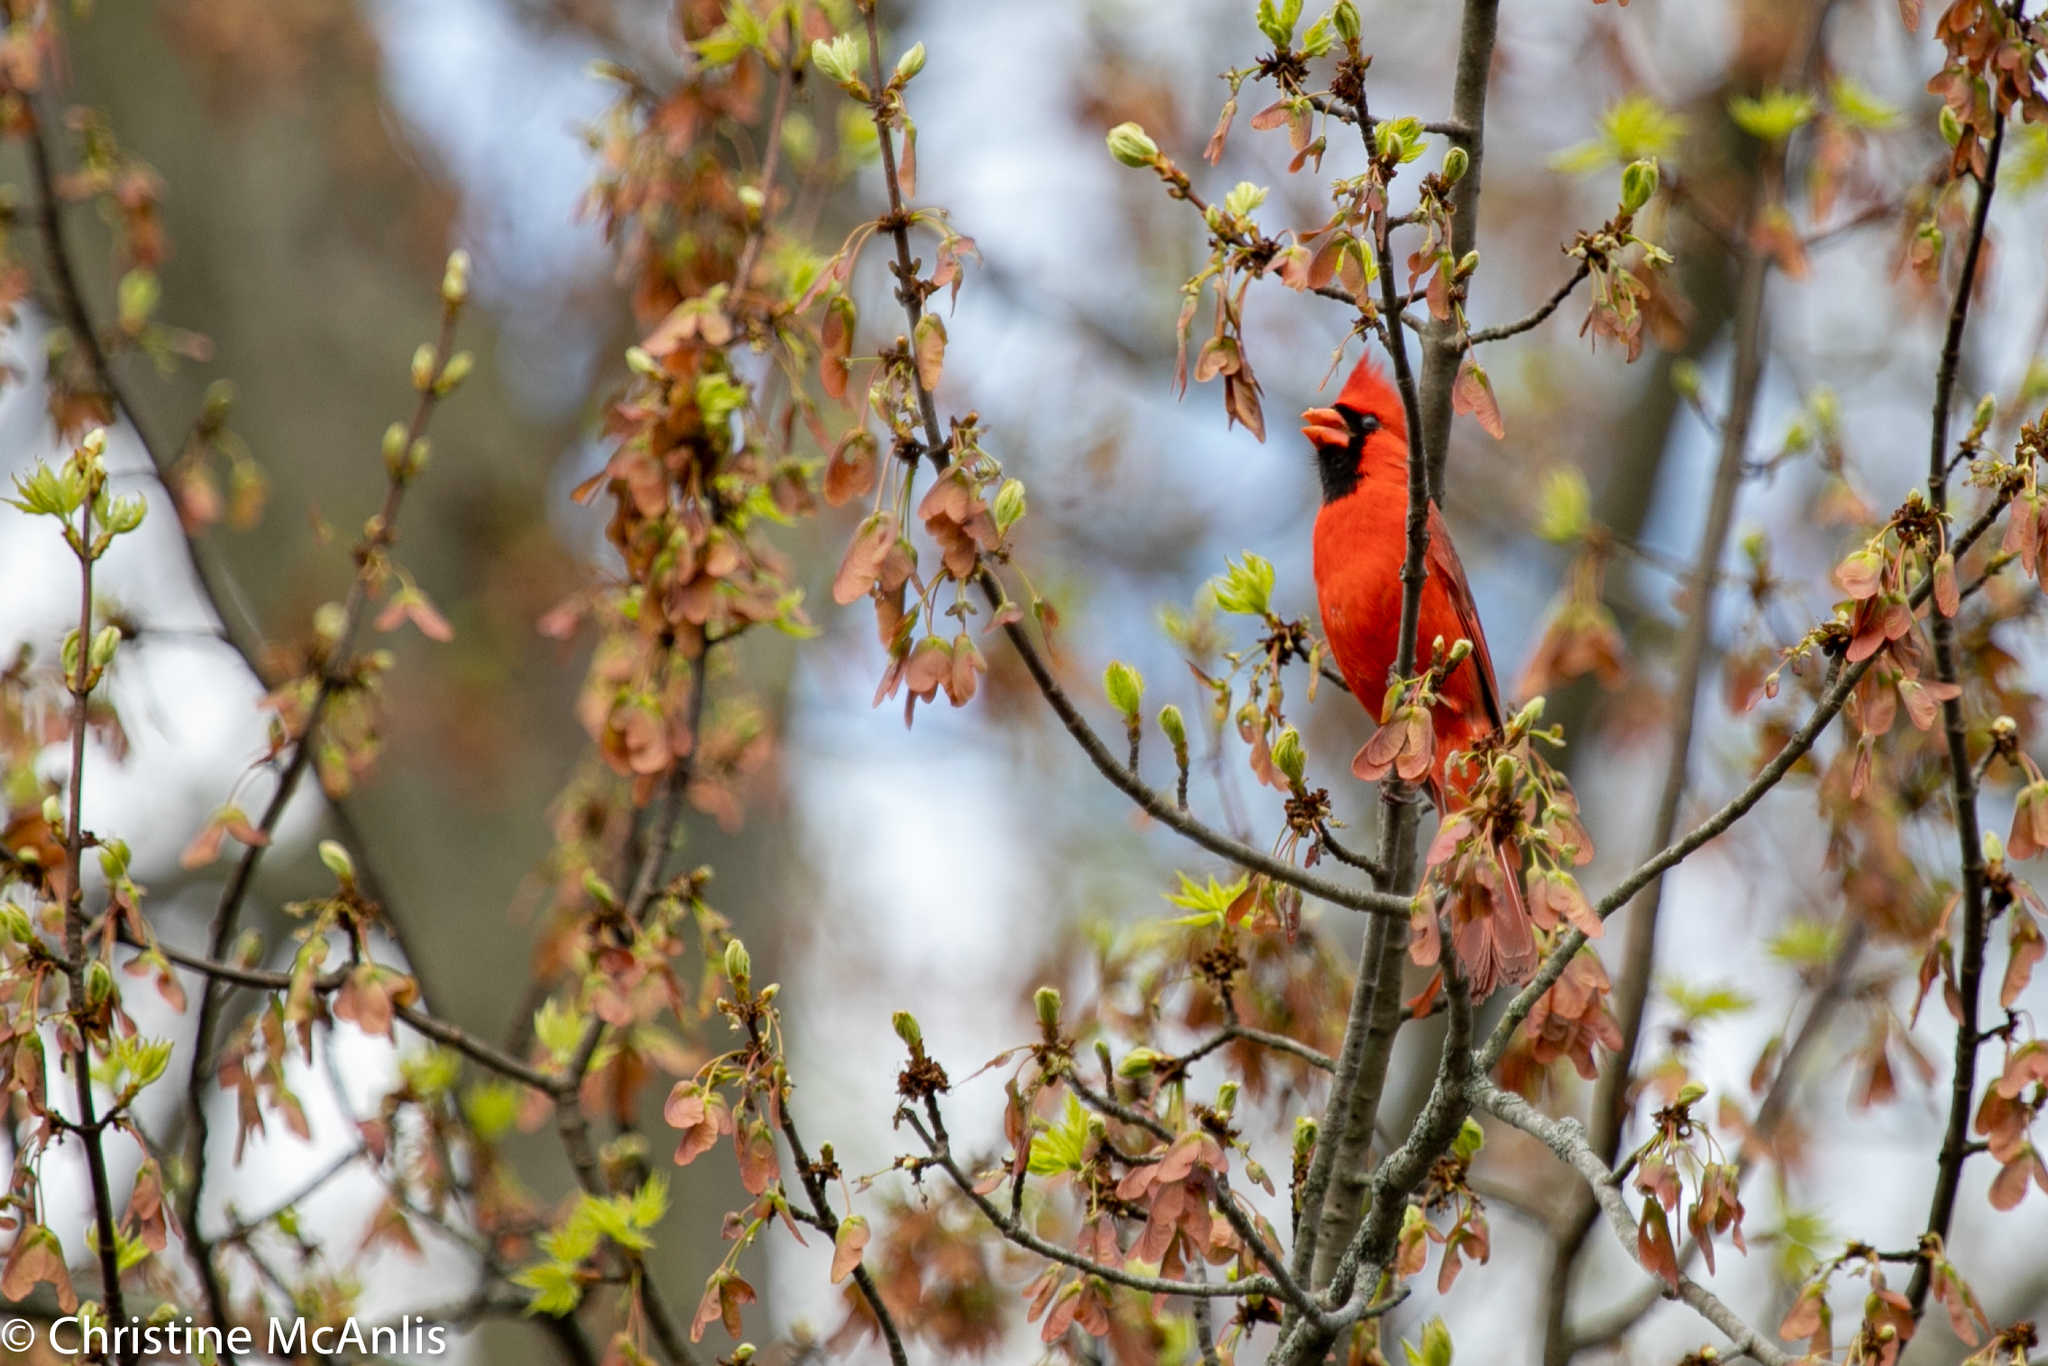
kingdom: Animalia
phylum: Chordata
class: Aves
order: Passeriformes
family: Cardinalidae
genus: Cardinalis
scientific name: Cardinalis cardinalis
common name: Northern cardinal
